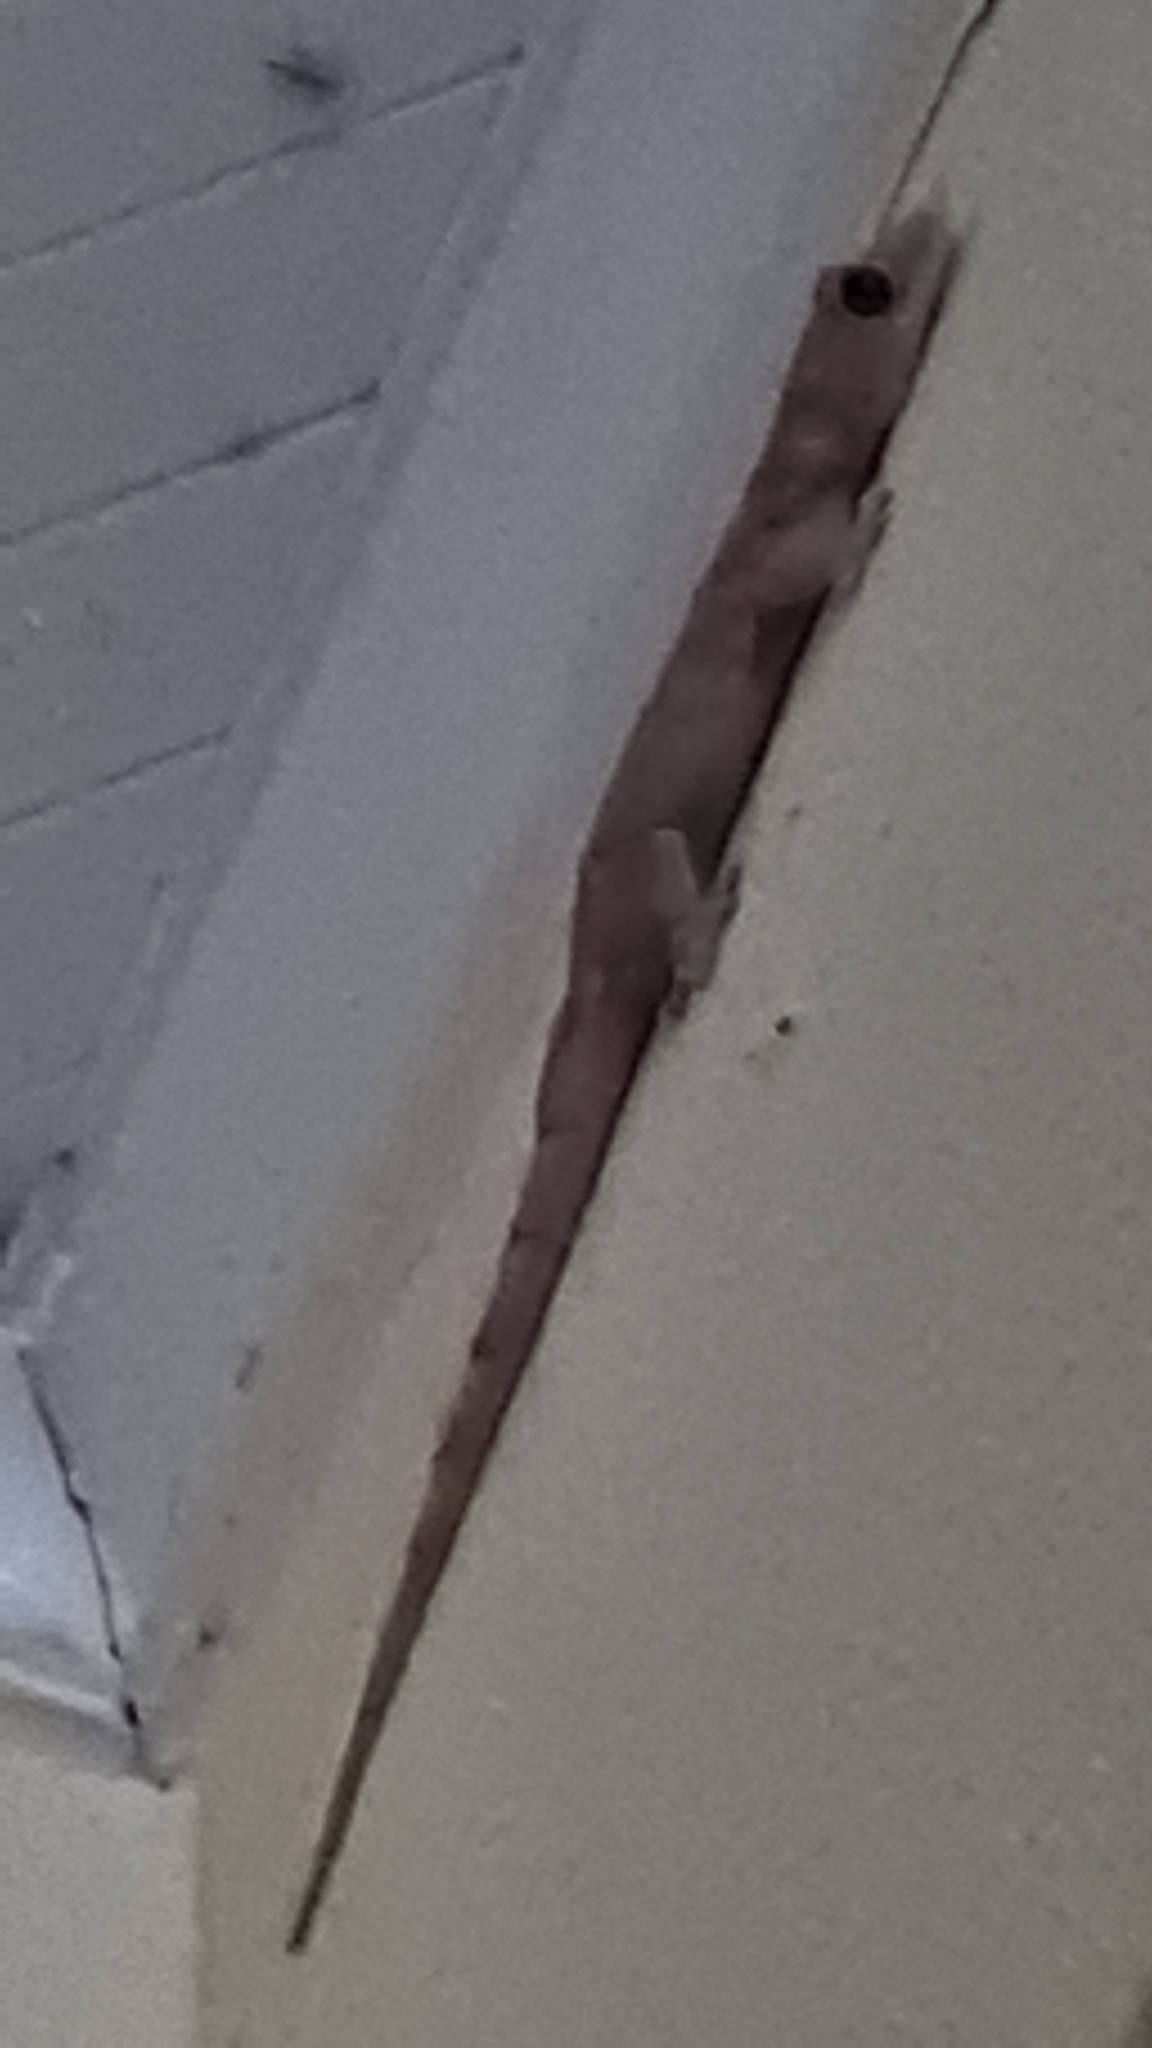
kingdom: Animalia
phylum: Chordata
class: Squamata
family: Gekkonidae
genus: Hemidactylus
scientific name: Hemidactylus mabouia
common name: House gecko
